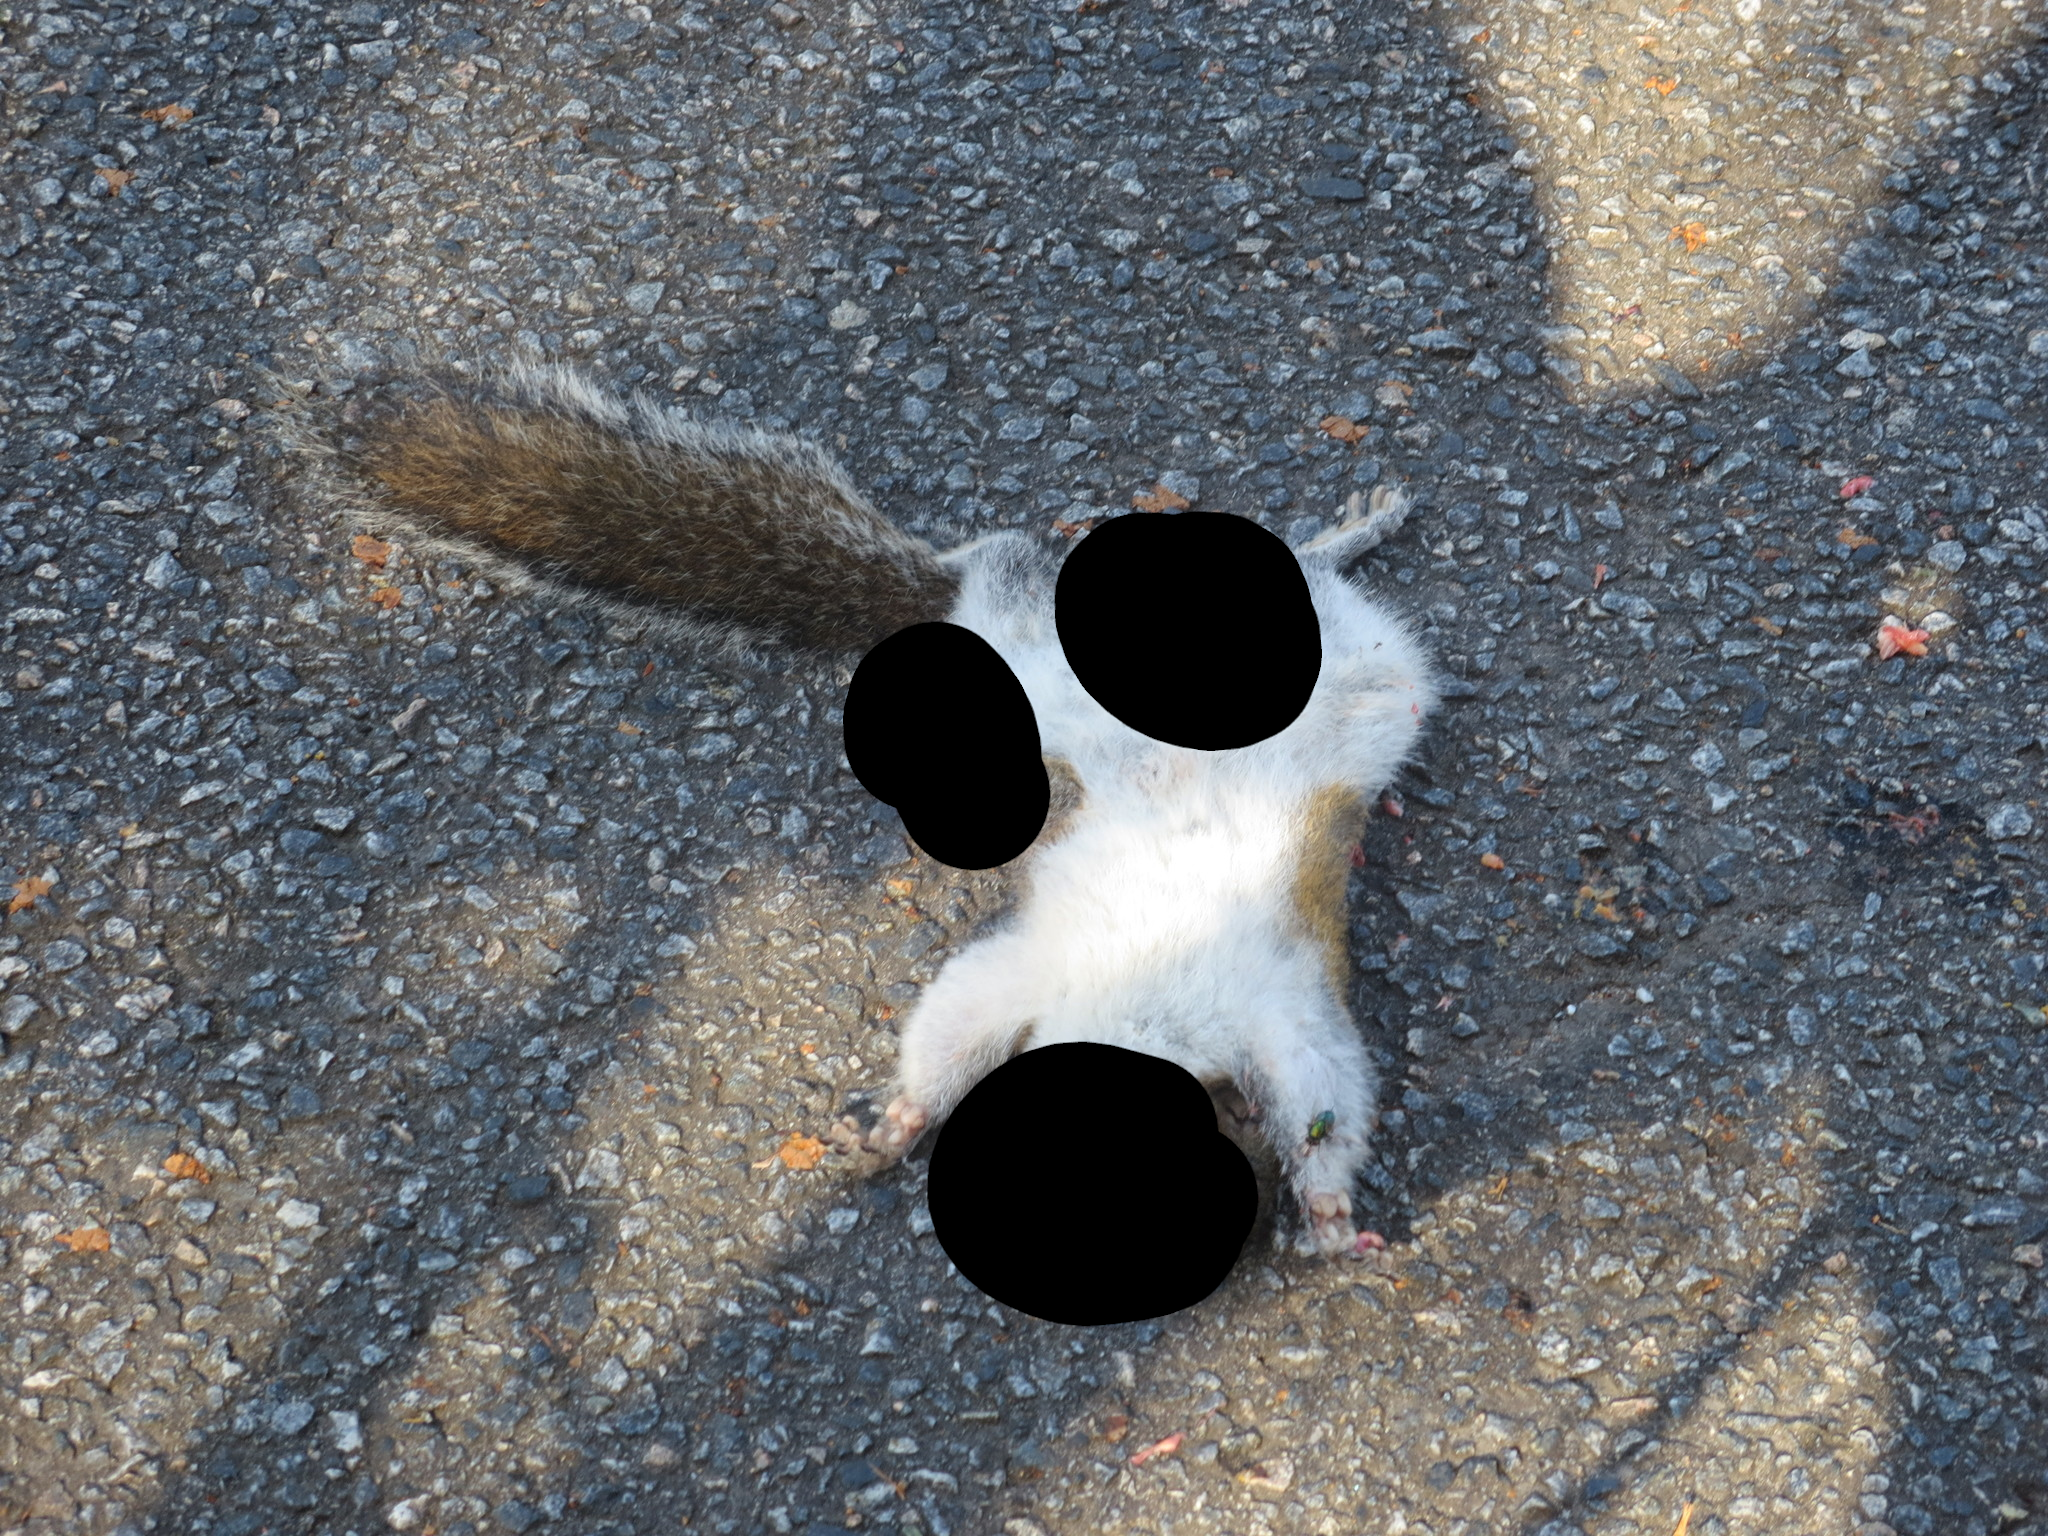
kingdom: Animalia
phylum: Chordata
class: Mammalia
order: Rodentia
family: Sciuridae
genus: Sciurus
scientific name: Sciurus carolinensis
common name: Eastern gray squirrel
